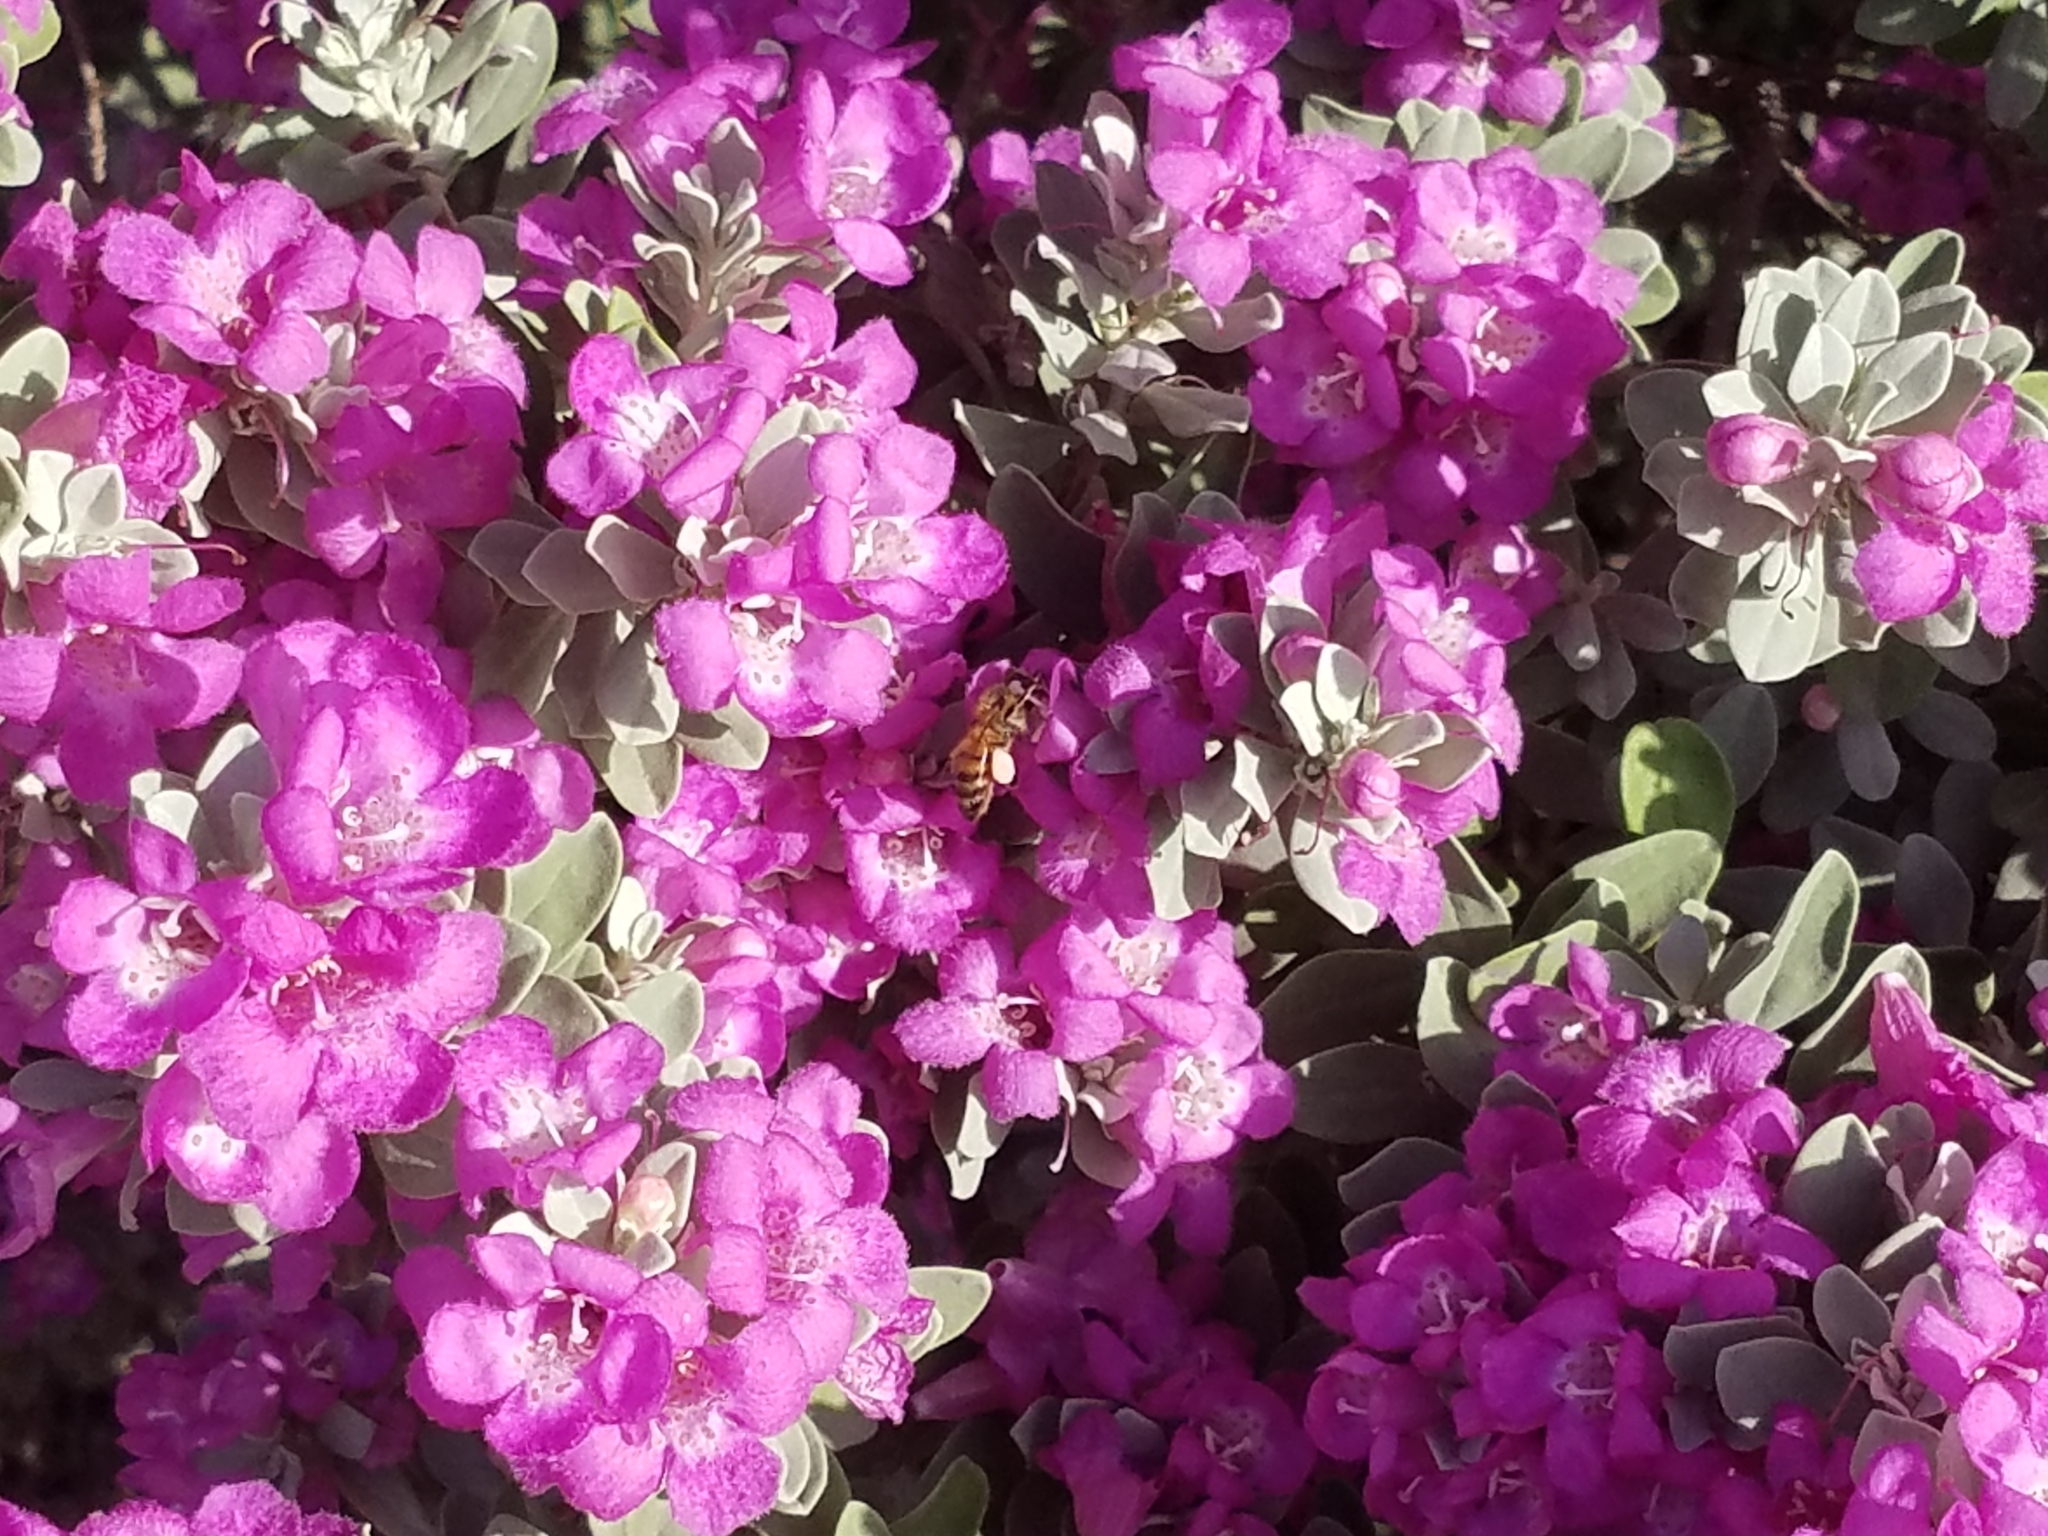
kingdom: Animalia
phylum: Arthropoda
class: Insecta
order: Hymenoptera
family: Apidae
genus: Apis
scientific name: Apis mellifera
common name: Honey bee
